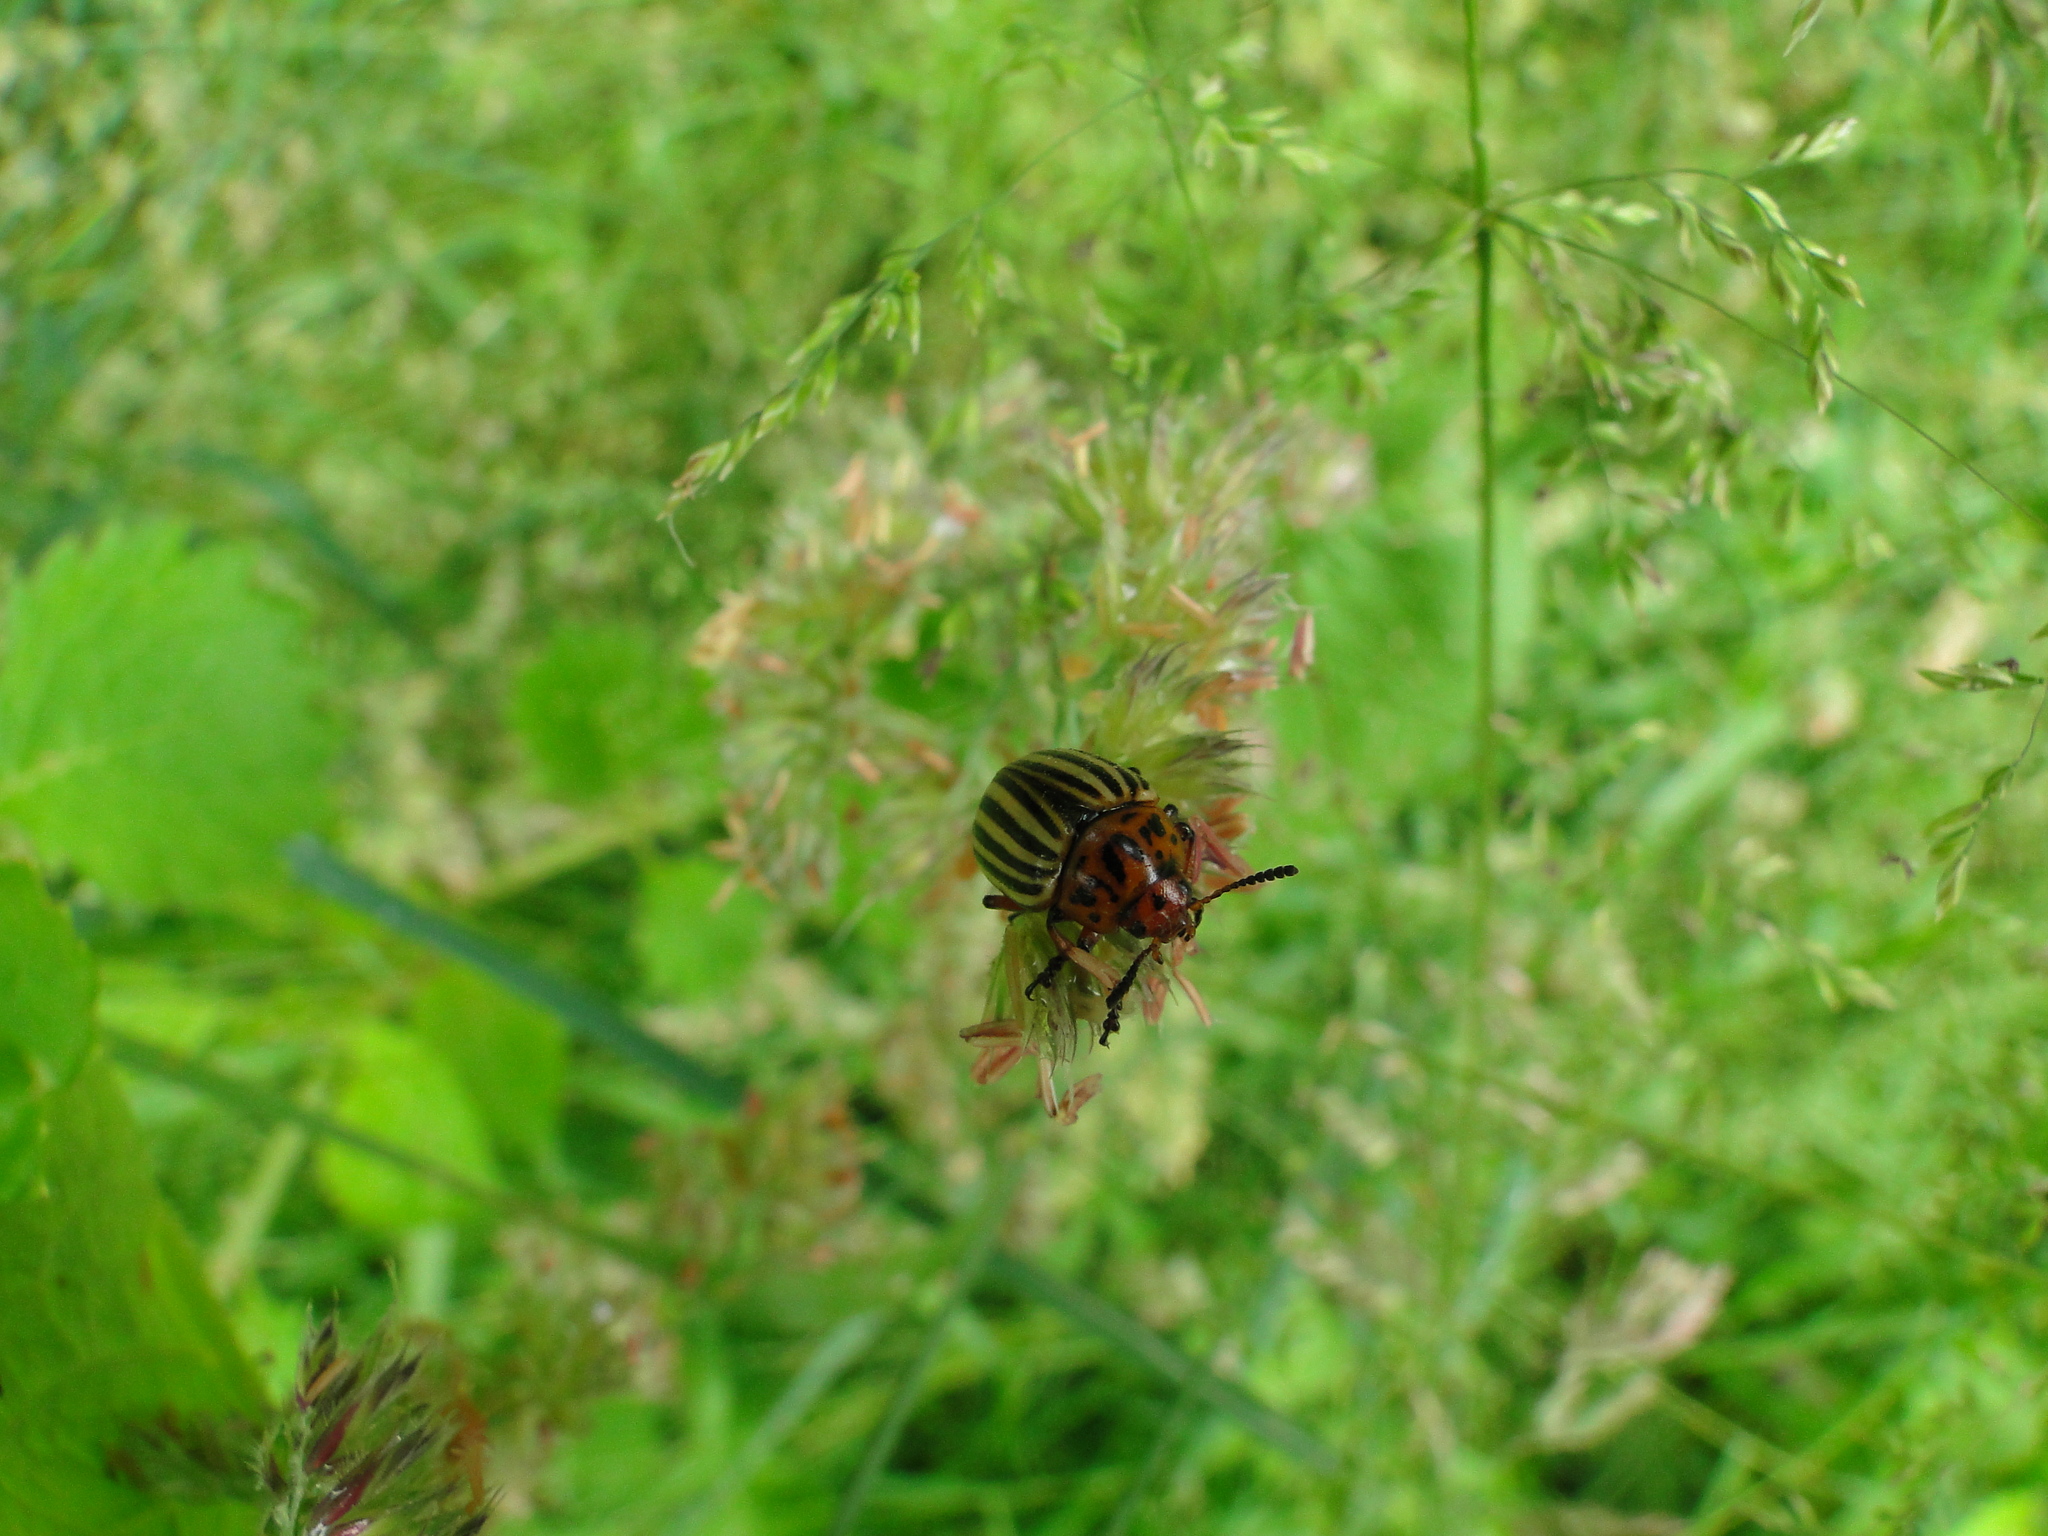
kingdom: Animalia
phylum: Arthropoda
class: Insecta
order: Coleoptera
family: Chrysomelidae
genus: Leptinotarsa
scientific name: Leptinotarsa decemlineata
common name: Colorado potato beetle
